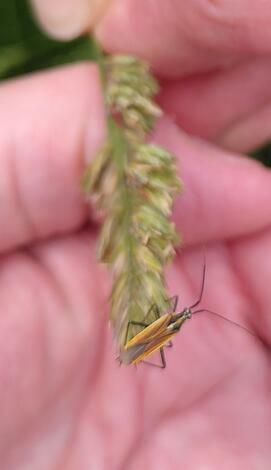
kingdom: Animalia
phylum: Arthropoda
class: Insecta
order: Hemiptera
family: Miridae
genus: Leptopterna
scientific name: Leptopterna dolabrata
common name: Meadow plant bug
